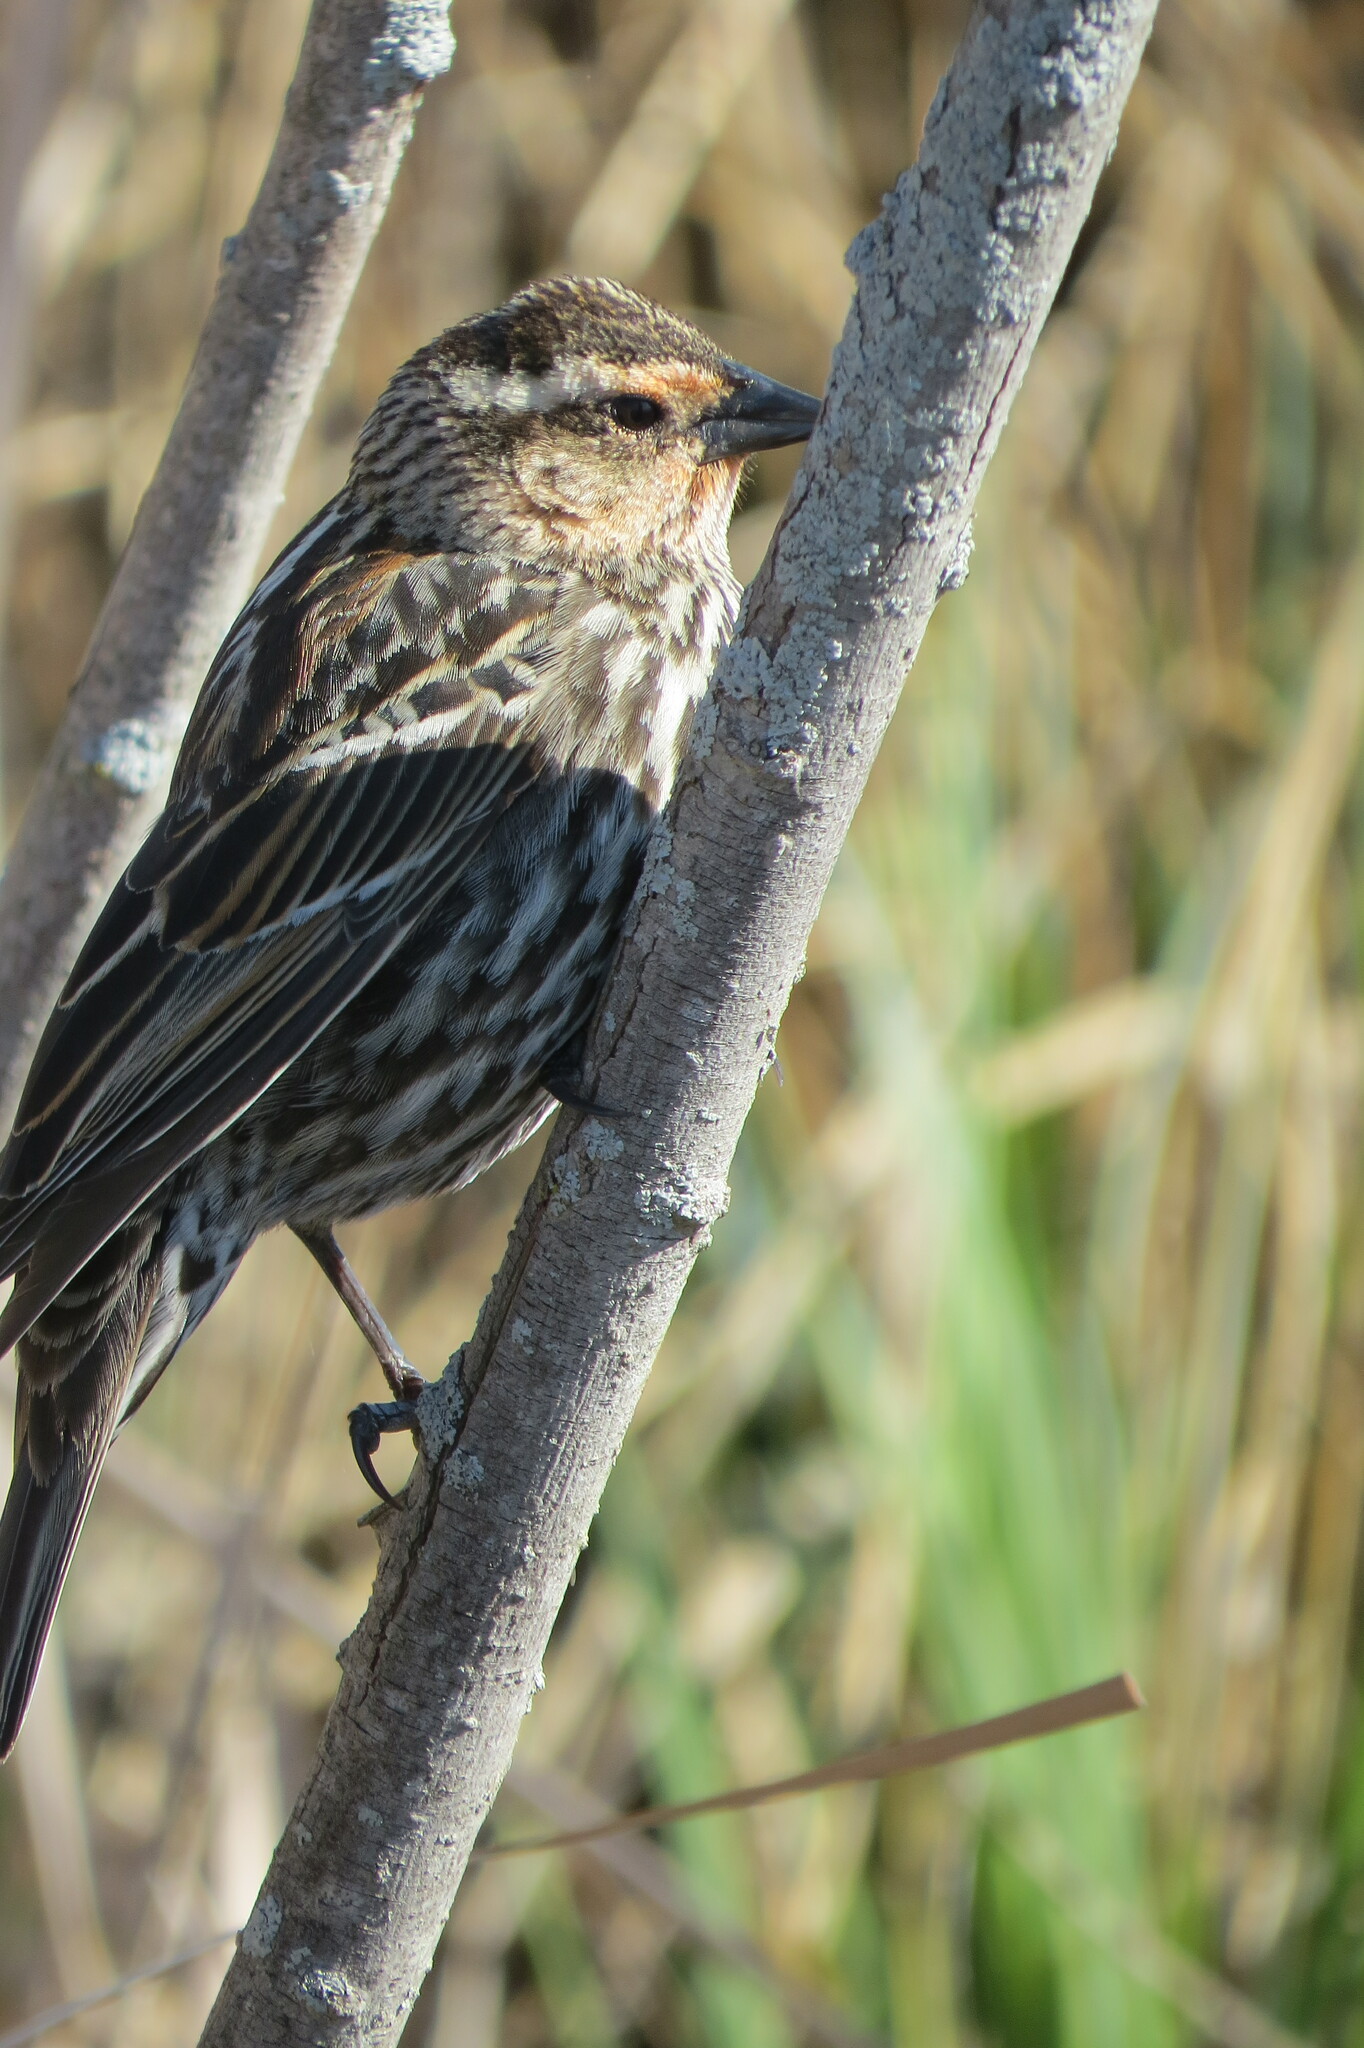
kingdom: Animalia
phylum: Chordata
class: Aves
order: Passeriformes
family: Icteridae
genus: Agelaius
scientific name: Agelaius phoeniceus
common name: Red-winged blackbird
